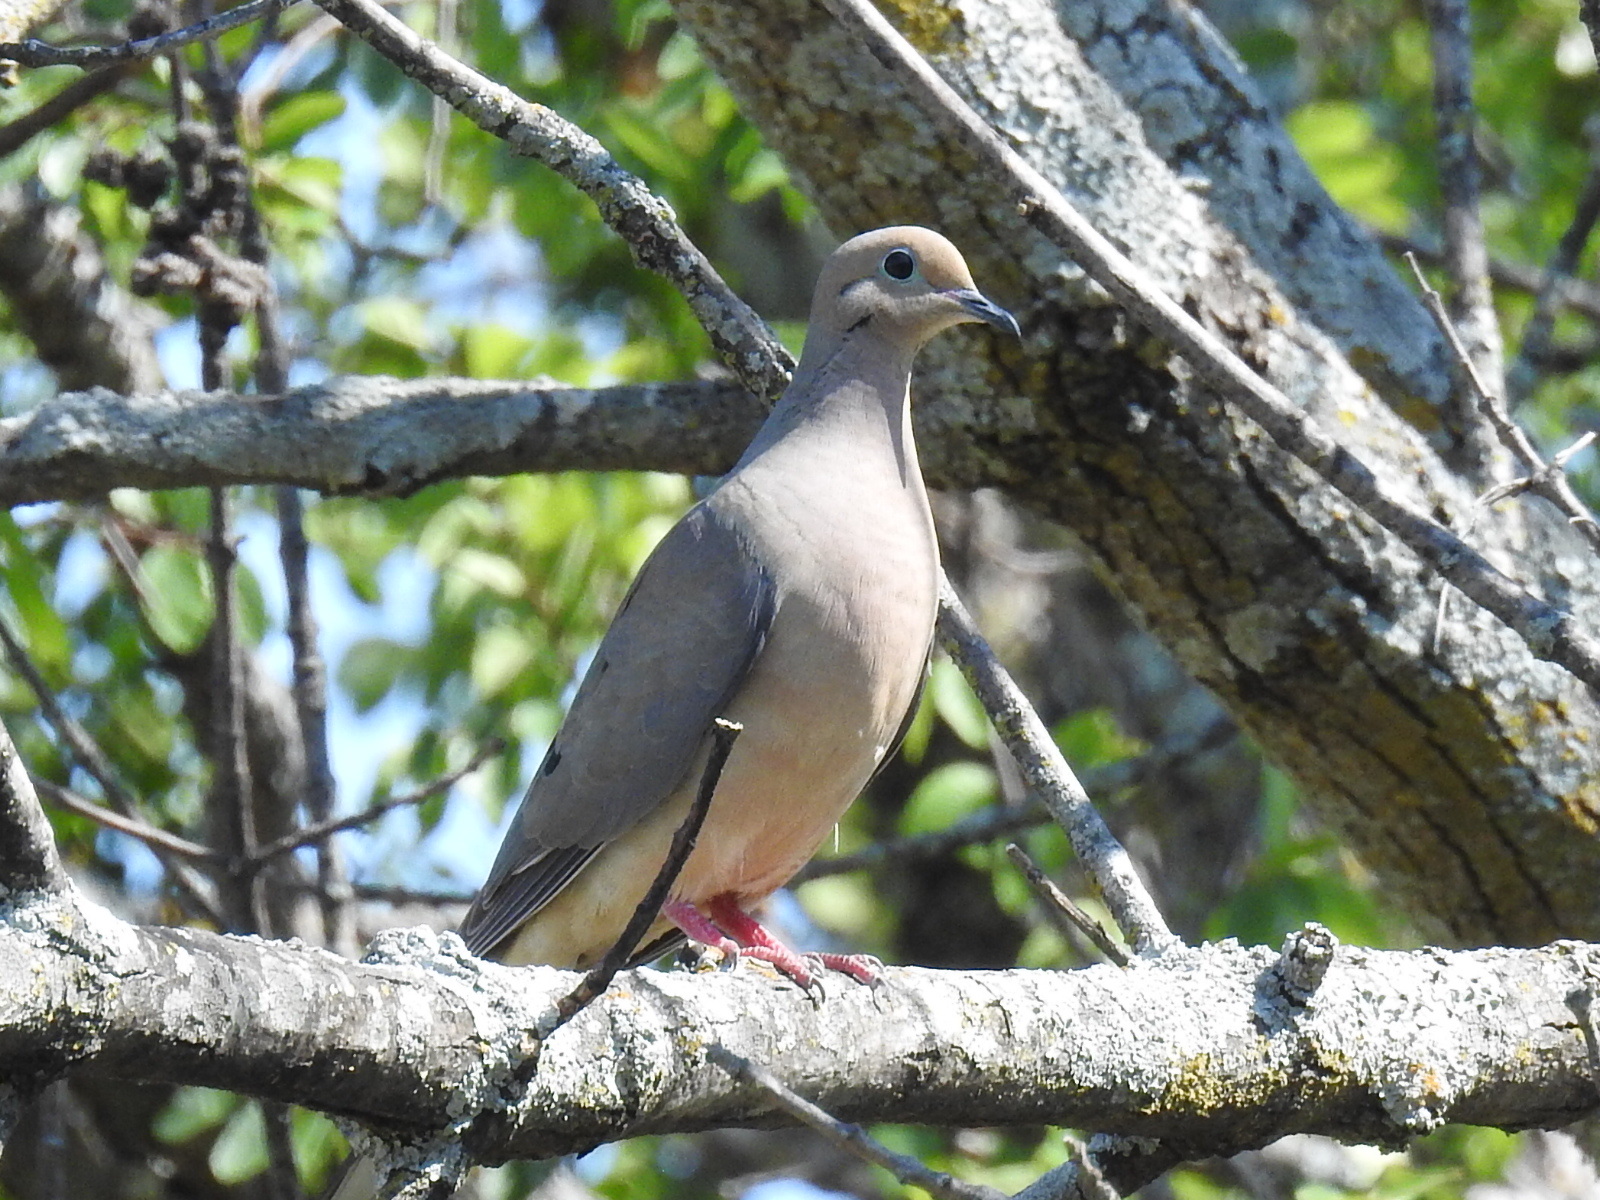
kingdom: Animalia
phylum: Chordata
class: Aves
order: Columbiformes
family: Columbidae
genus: Zenaida
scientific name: Zenaida macroura
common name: Mourning dove
